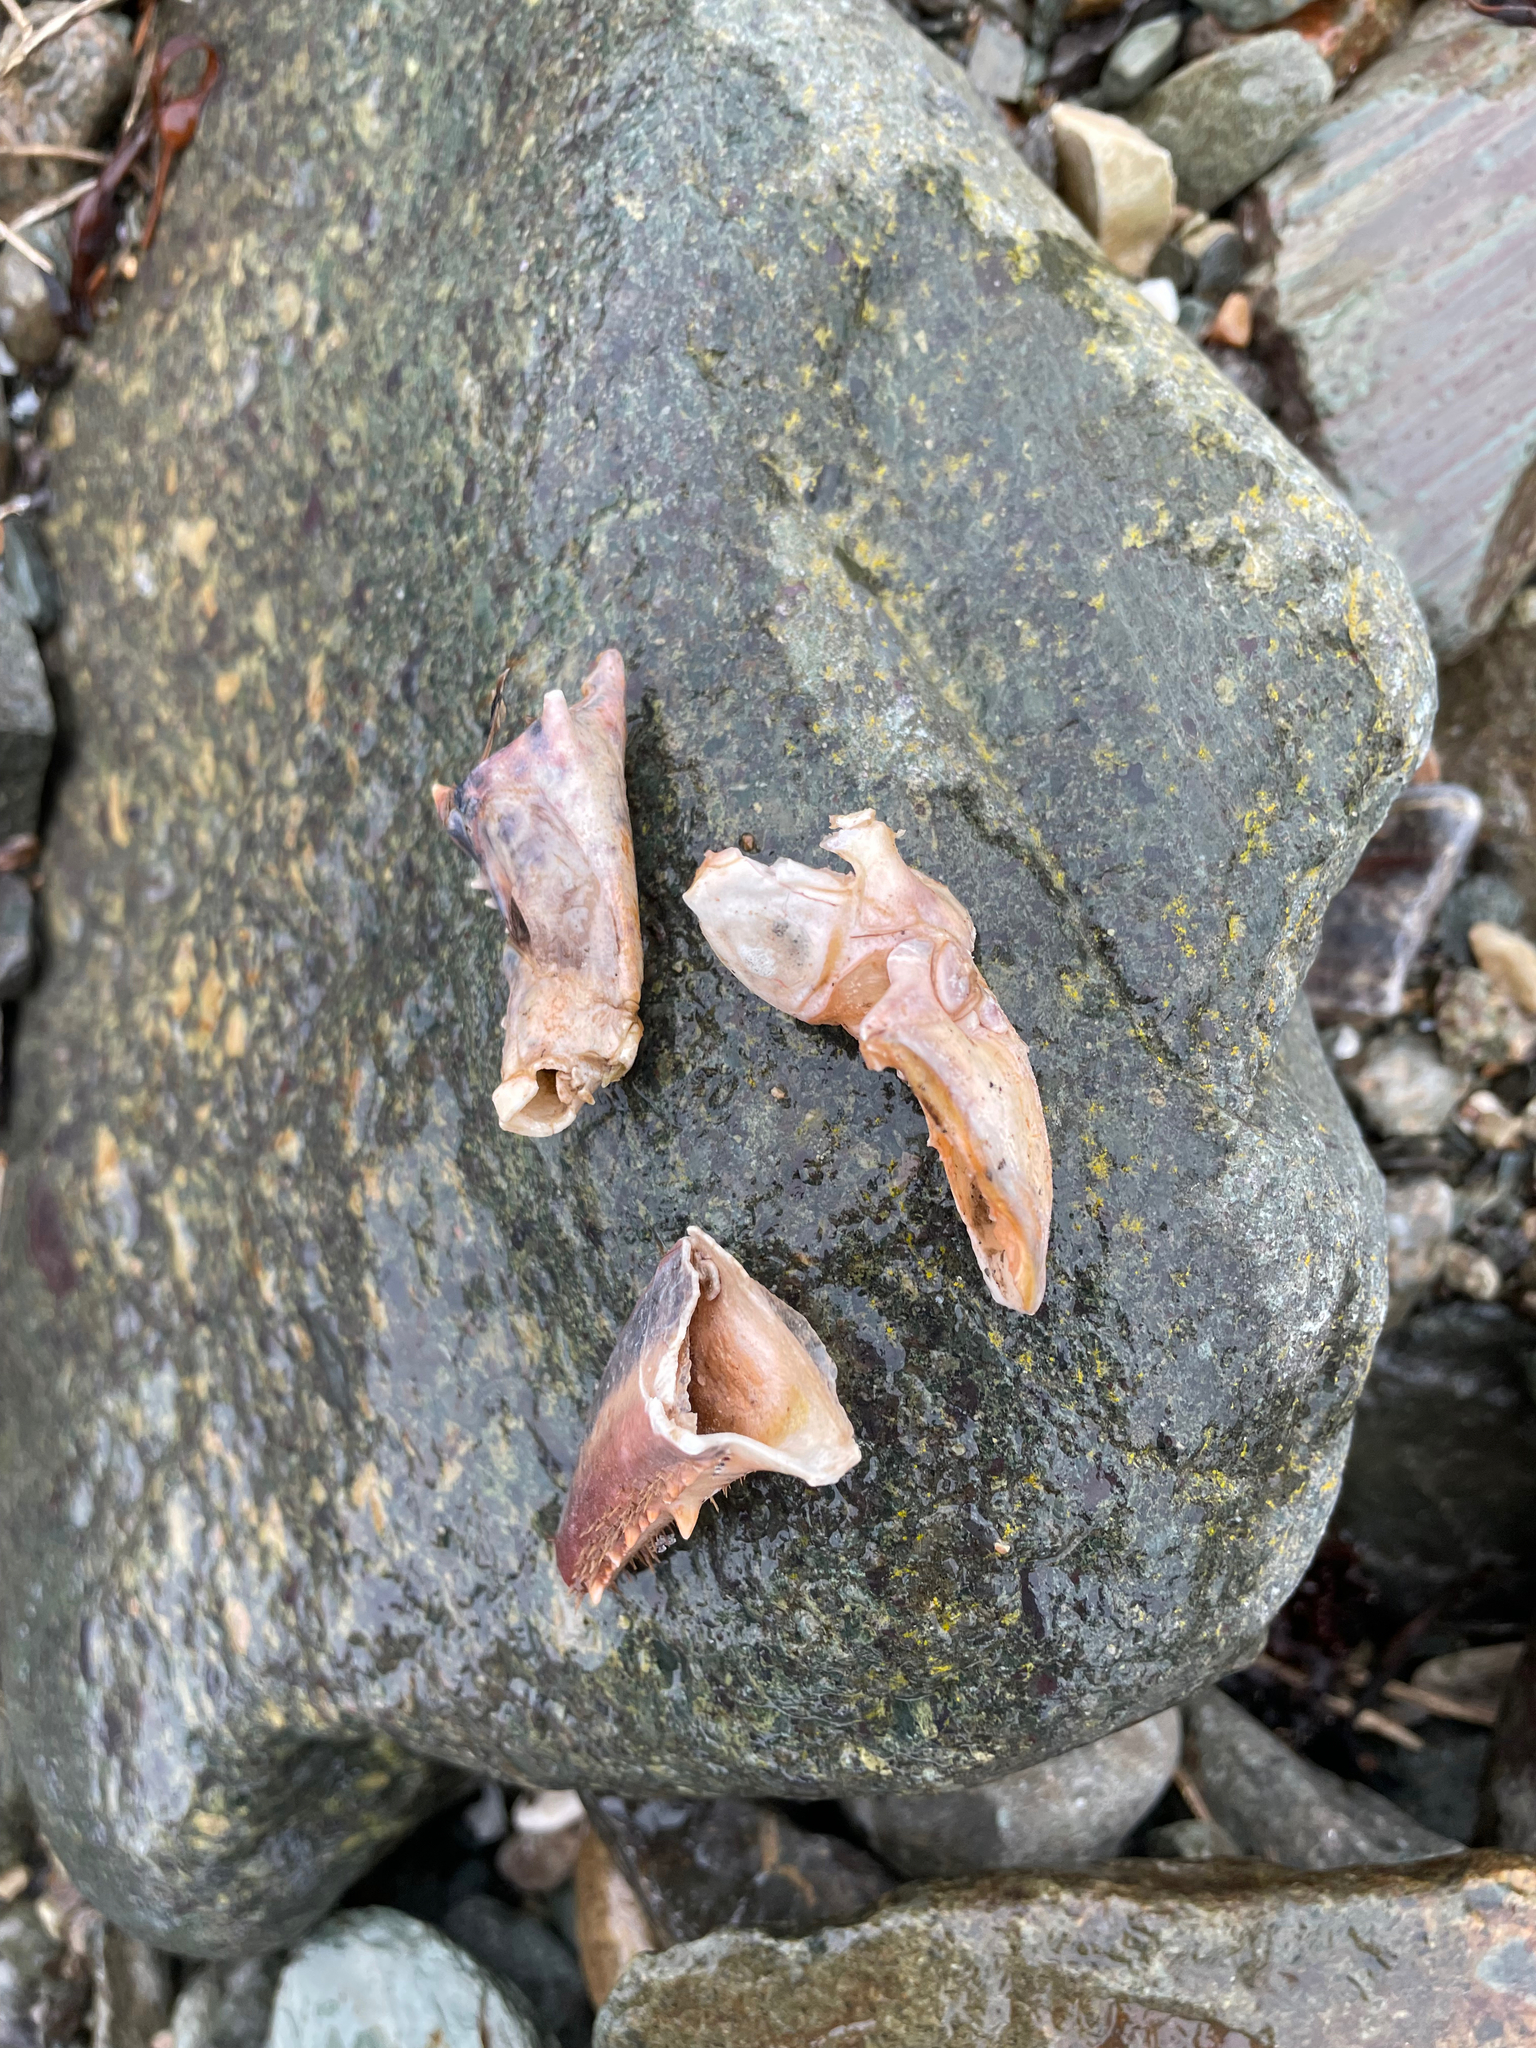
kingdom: Animalia
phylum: Arthropoda
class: Malacostraca
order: Decapoda
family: Nephropidae
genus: Homarus
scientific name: Homarus americanus
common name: American lobster
